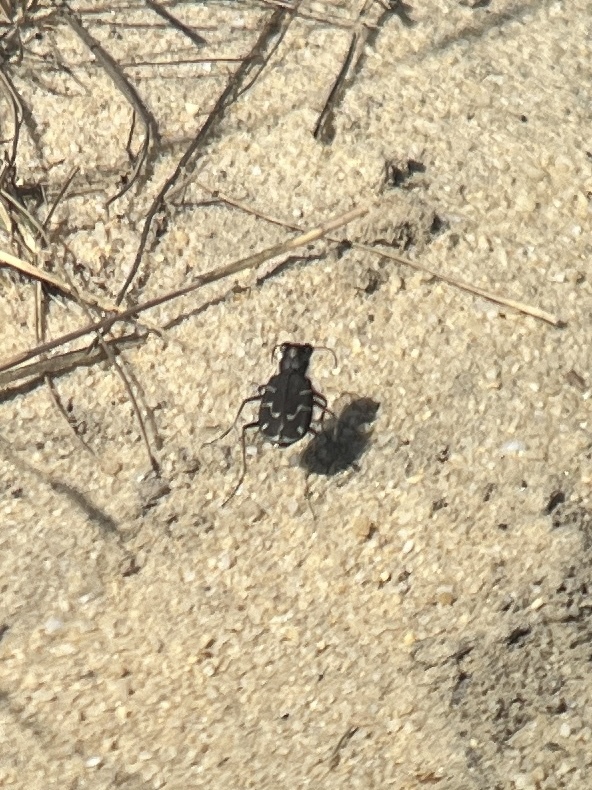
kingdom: Animalia
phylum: Arthropoda
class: Insecta
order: Coleoptera
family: Carabidae
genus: Cicindela
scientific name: Cicindela tranquebarica
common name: Oblique-lined tiger beetle
